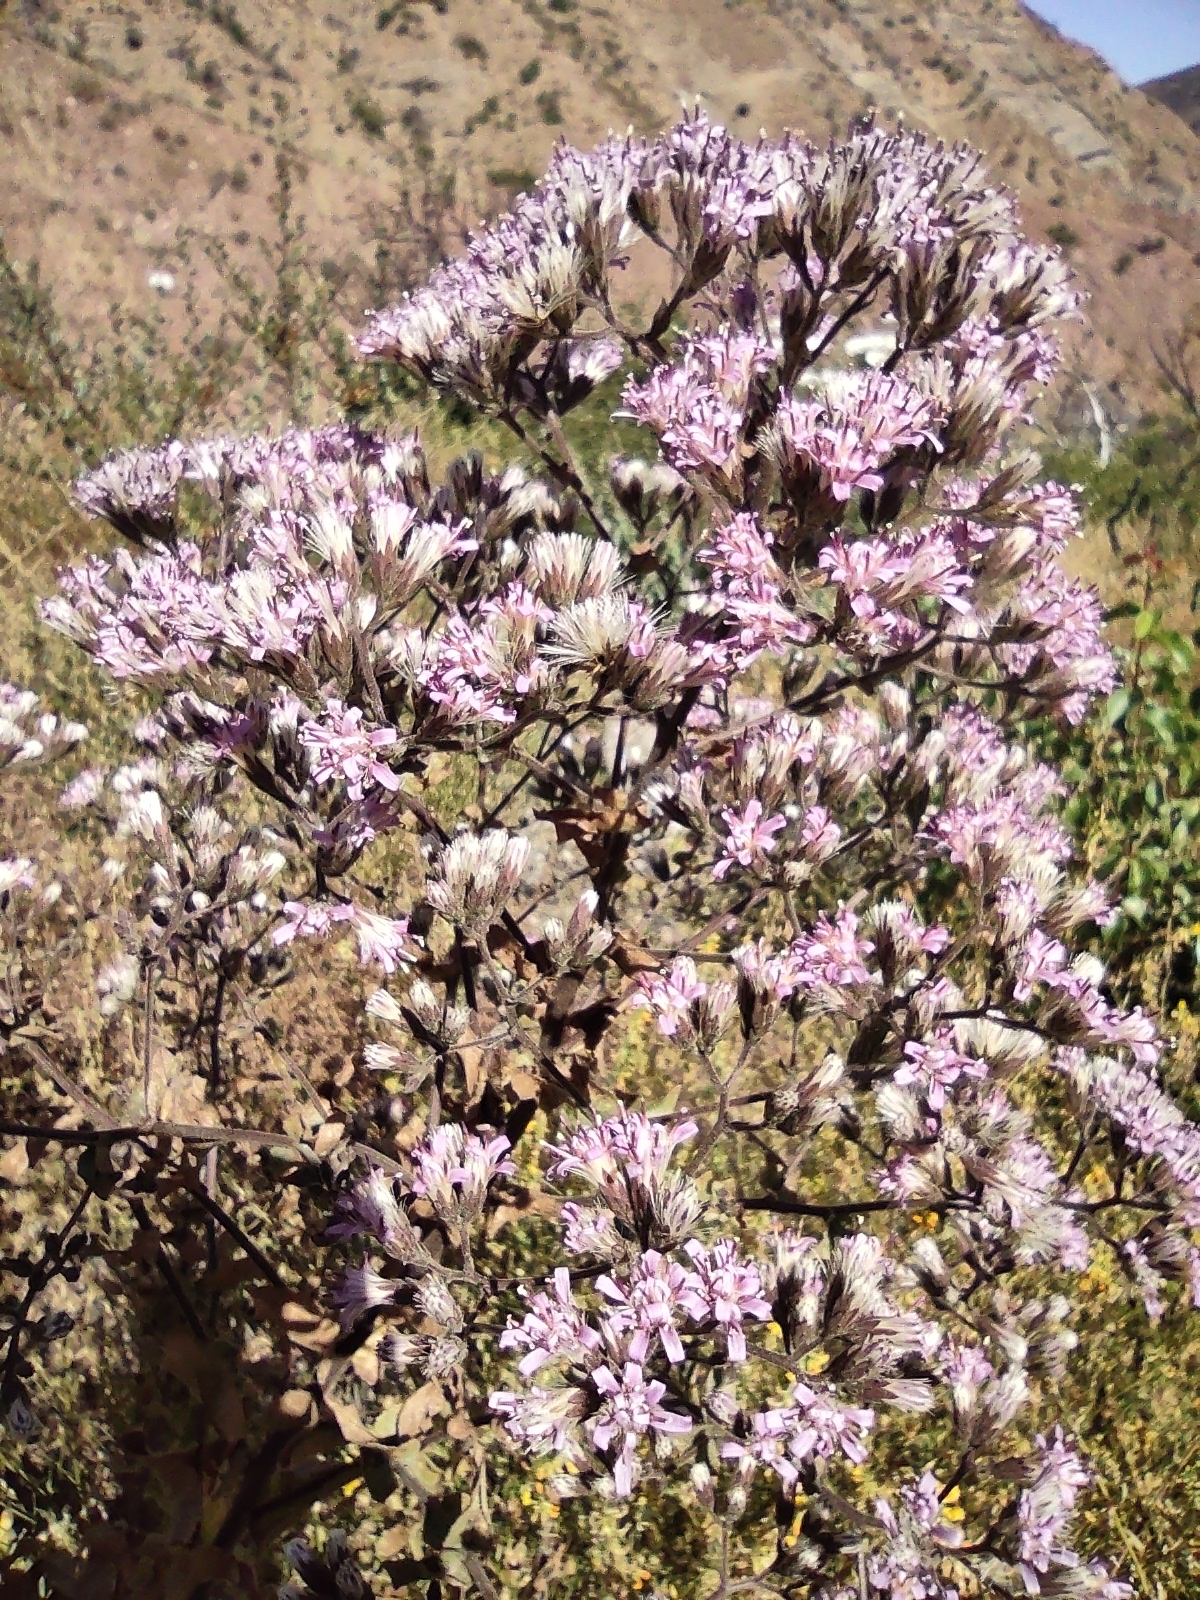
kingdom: Plantae
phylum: Tracheophyta
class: Magnoliopsida
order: Asterales
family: Asteraceae
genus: Acourtia
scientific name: Acourtia microcephala
